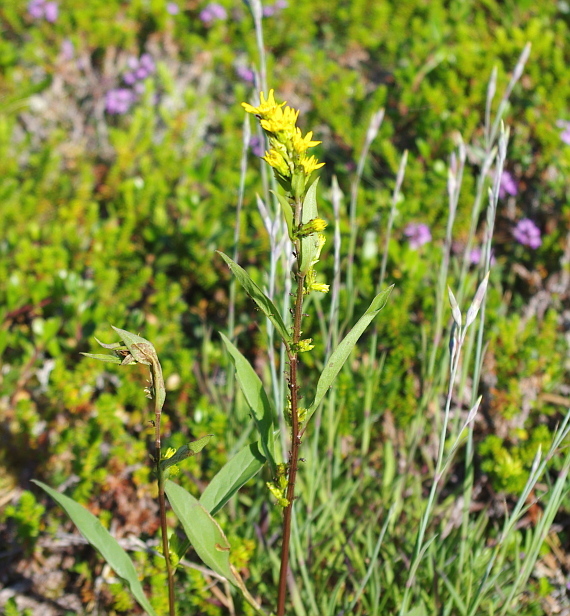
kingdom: Plantae
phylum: Tracheophyta
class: Magnoliopsida
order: Asterales
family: Asteraceae
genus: Solidago
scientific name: Solidago virgaurea
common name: Goldenrod
